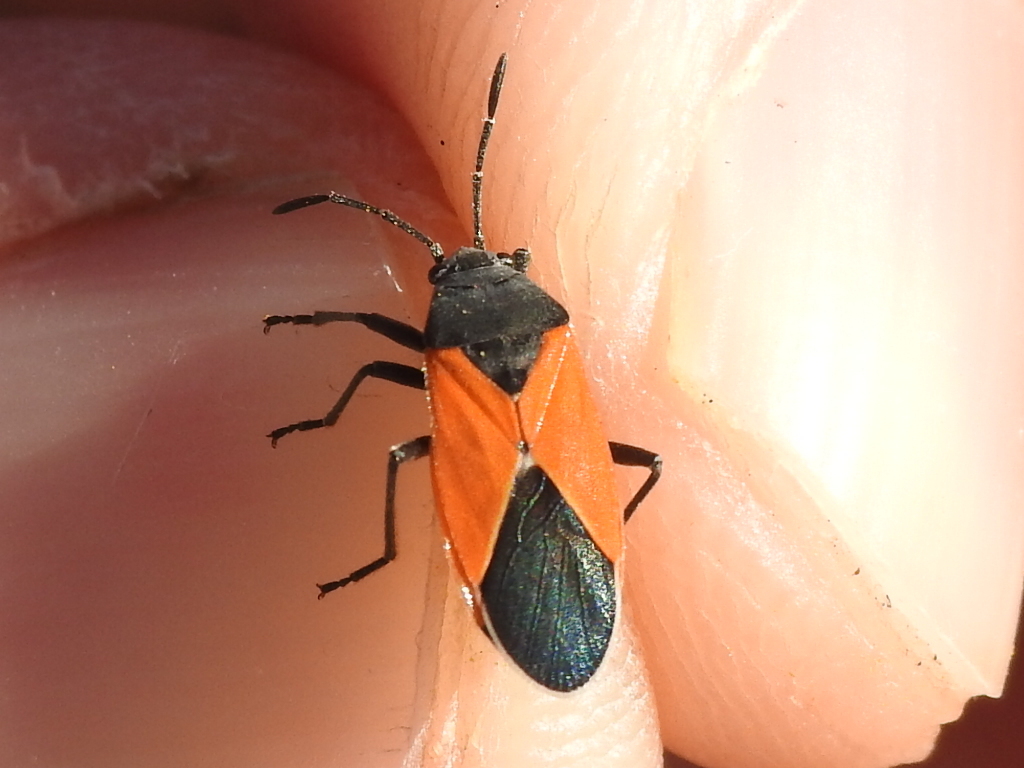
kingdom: Animalia
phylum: Arthropoda
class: Insecta
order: Hemiptera
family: Lygaeidae
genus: Melanopleurus
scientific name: Melanopleurus belfragei
